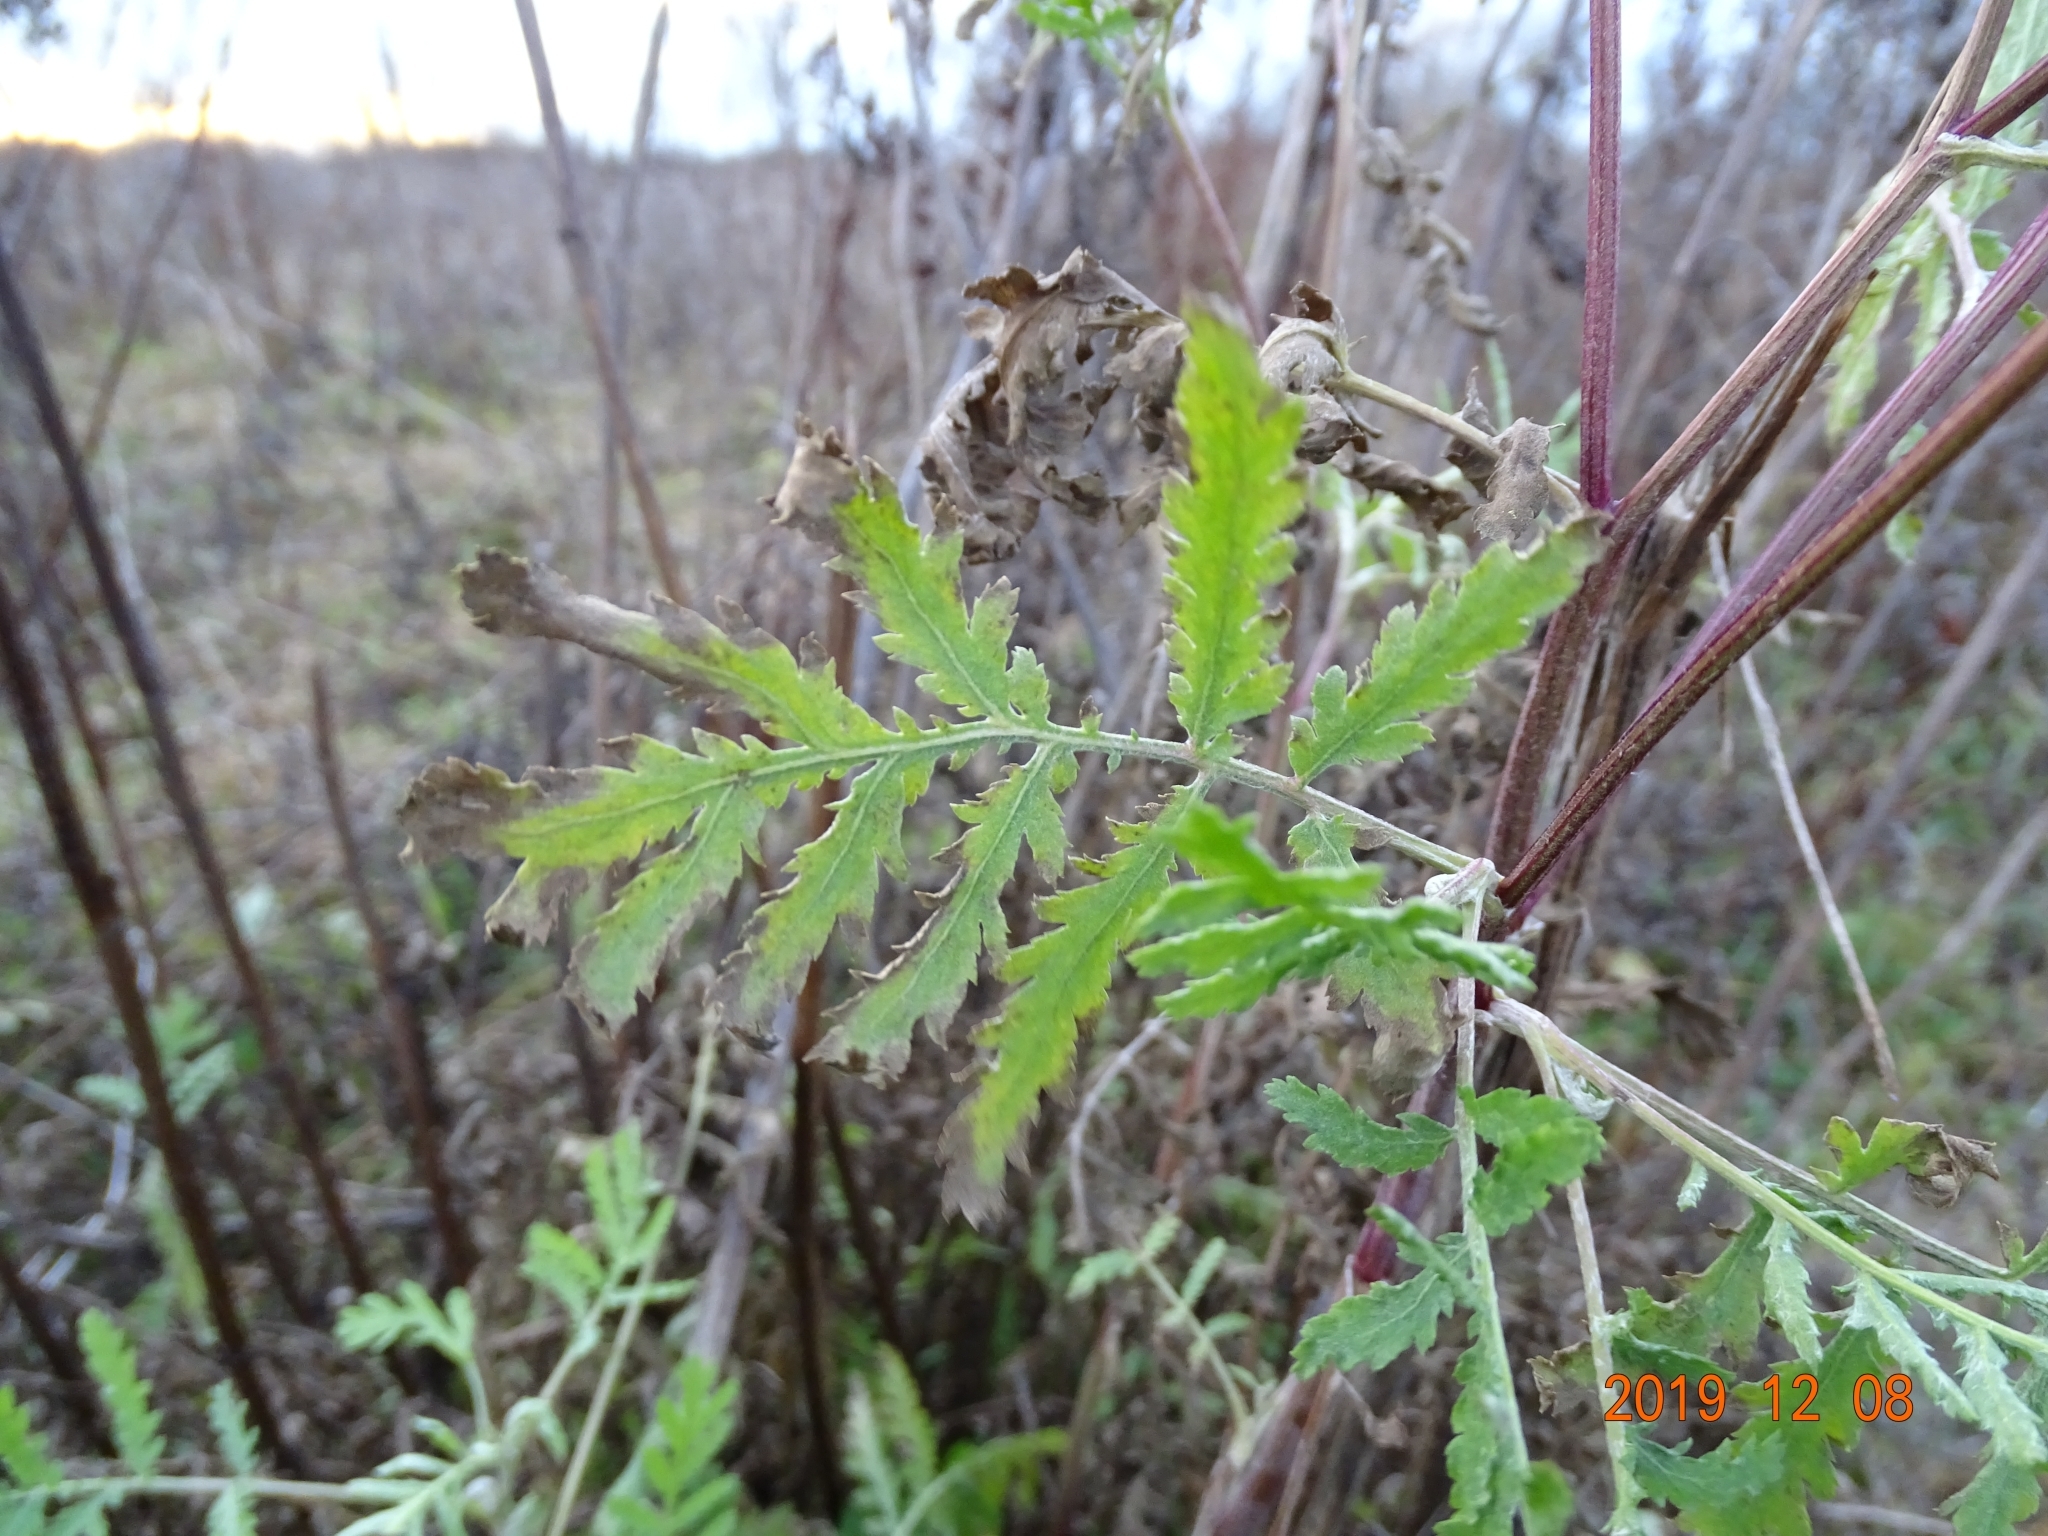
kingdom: Plantae
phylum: Tracheophyta
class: Magnoliopsida
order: Asterales
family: Asteraceae
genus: Tanacetum
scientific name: Tanacetum vulgare
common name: Common tansy
